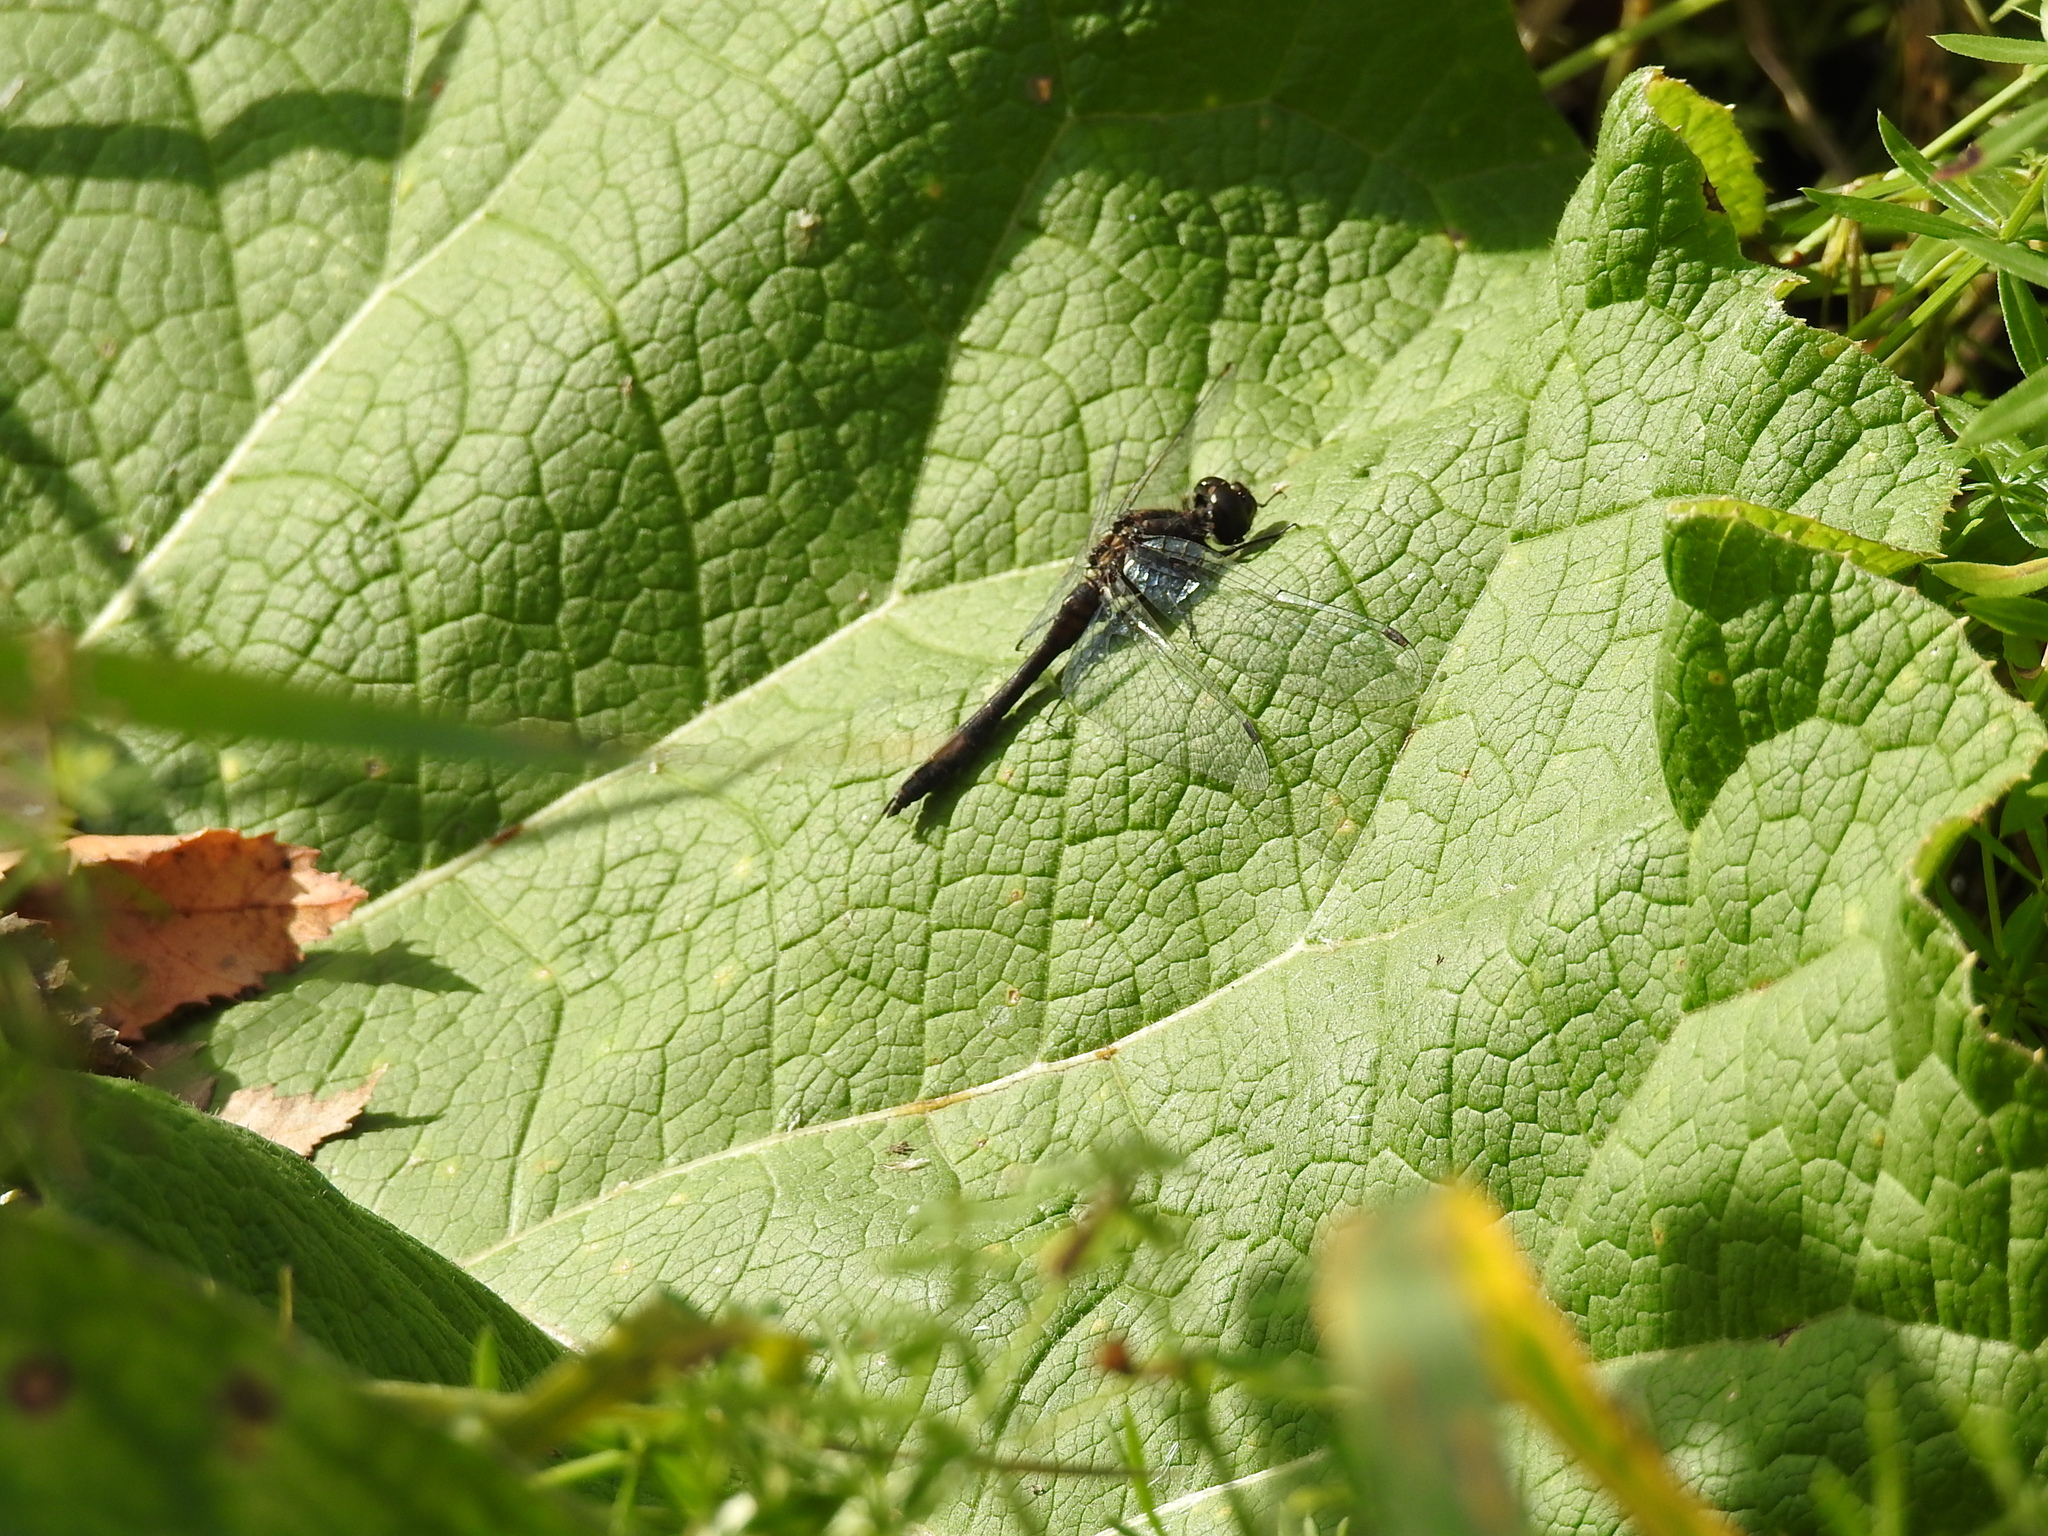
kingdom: Animalia
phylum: Arthropoda
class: Insecta
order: Odonata
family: Libellulidae
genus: Sympetrum
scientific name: Sympetrum danae
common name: Black darter
